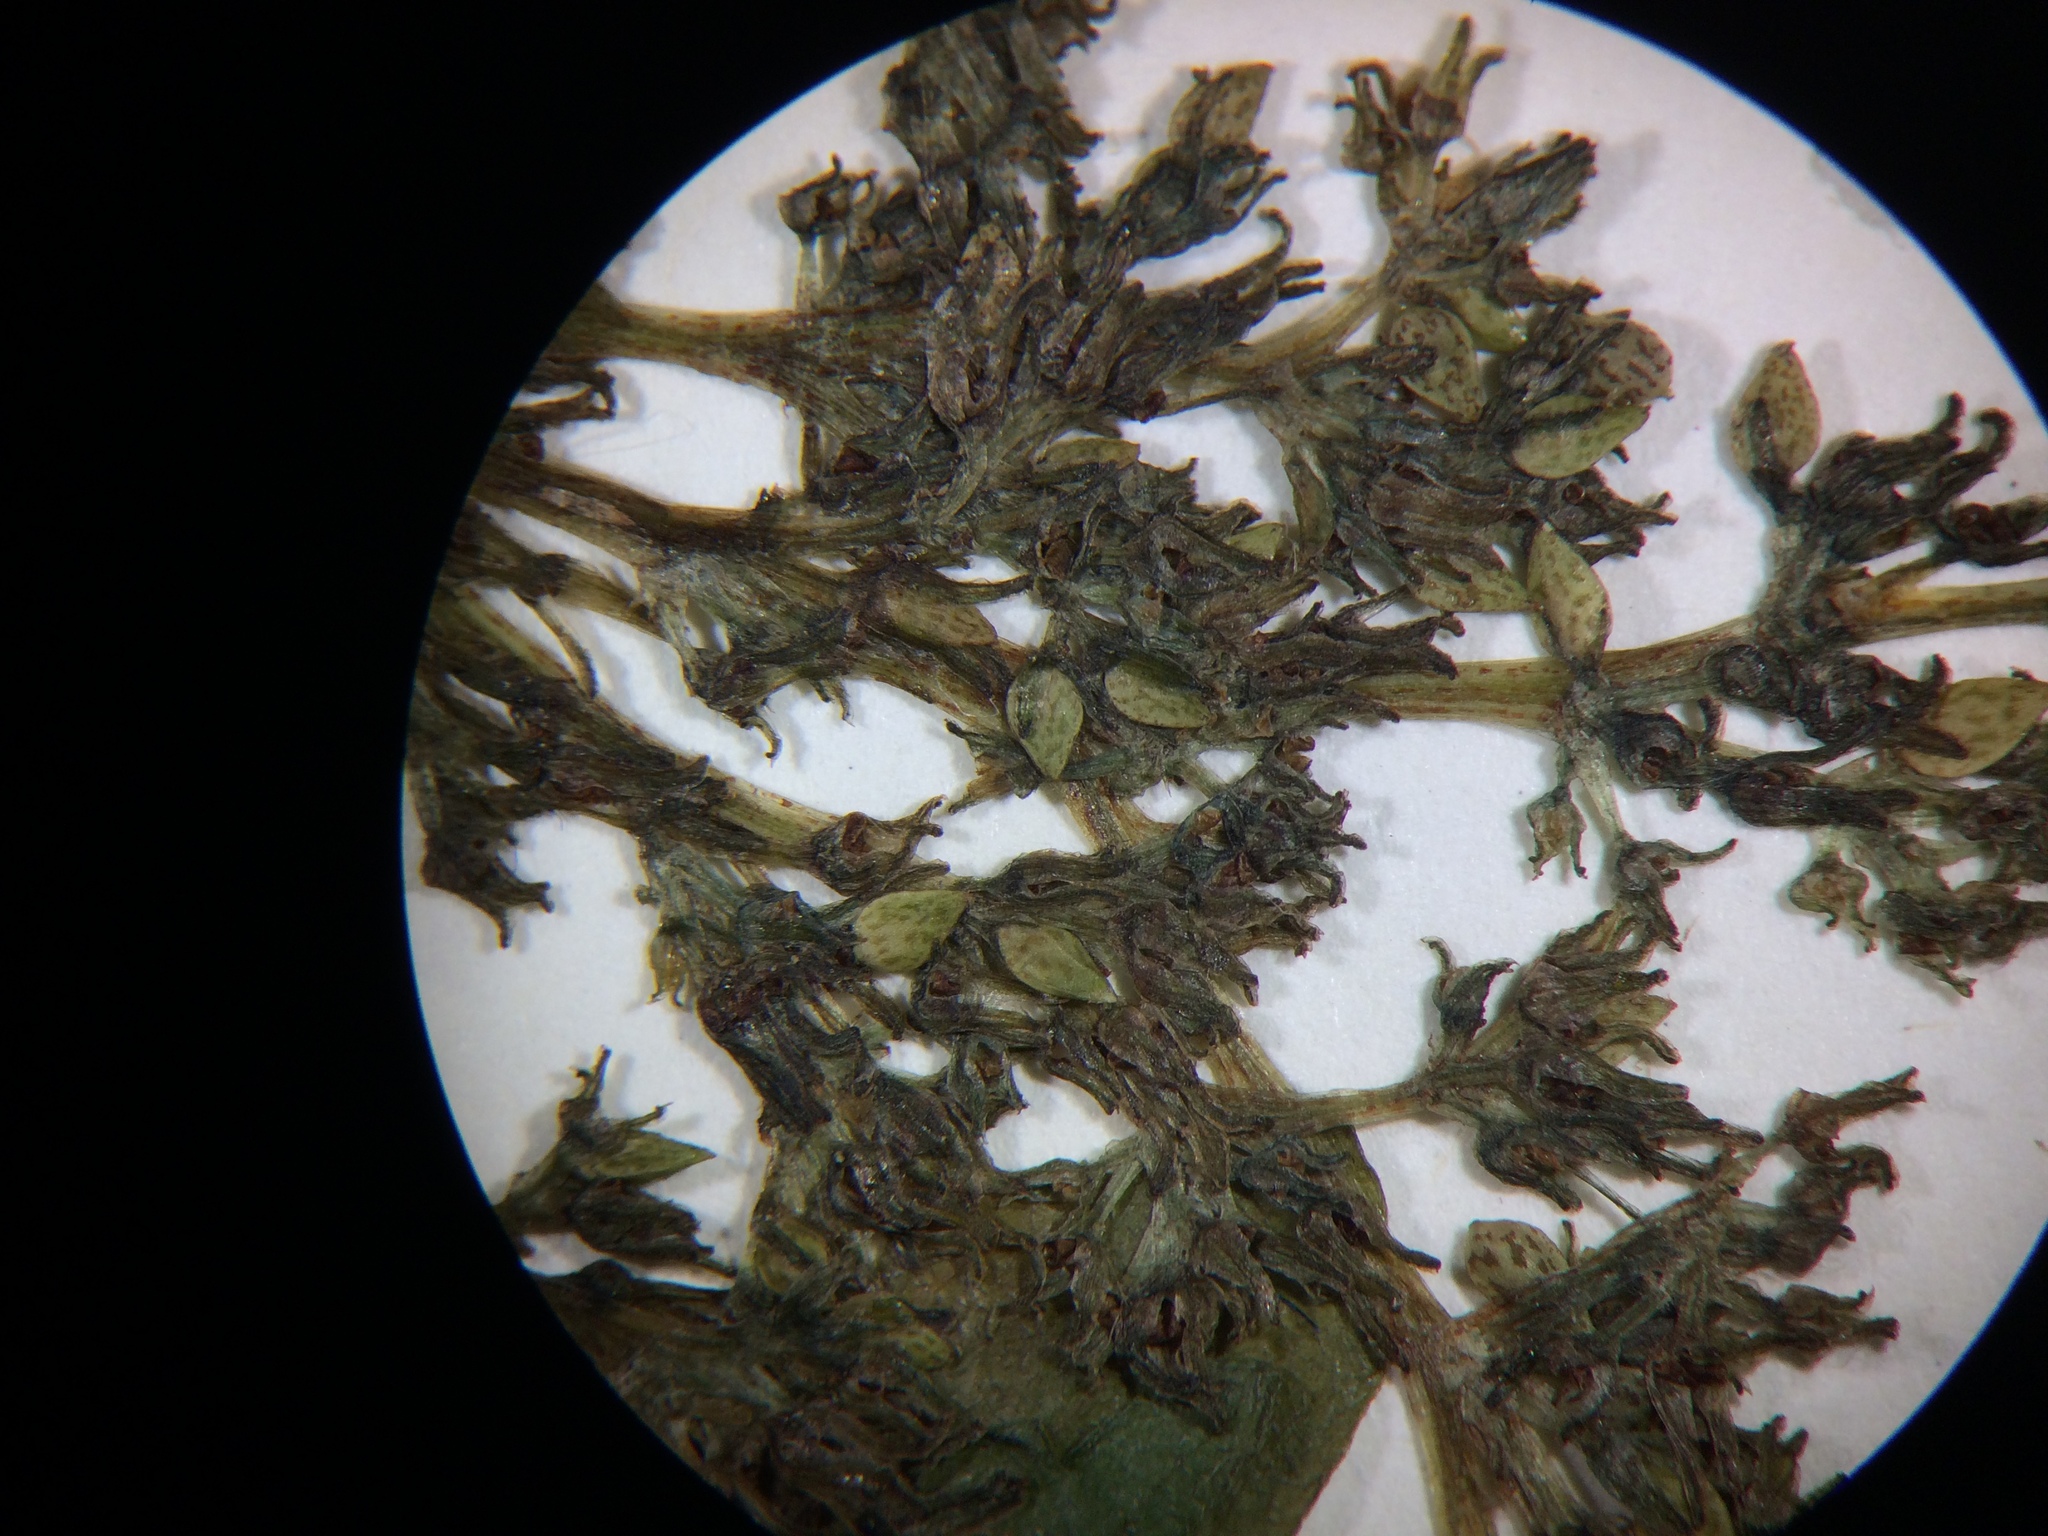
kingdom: Plantae
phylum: Tracheophyta
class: Magnoliopsida
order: Rosales
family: Urticaceae
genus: Pilea
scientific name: Pilea pumila
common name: Clearweed
